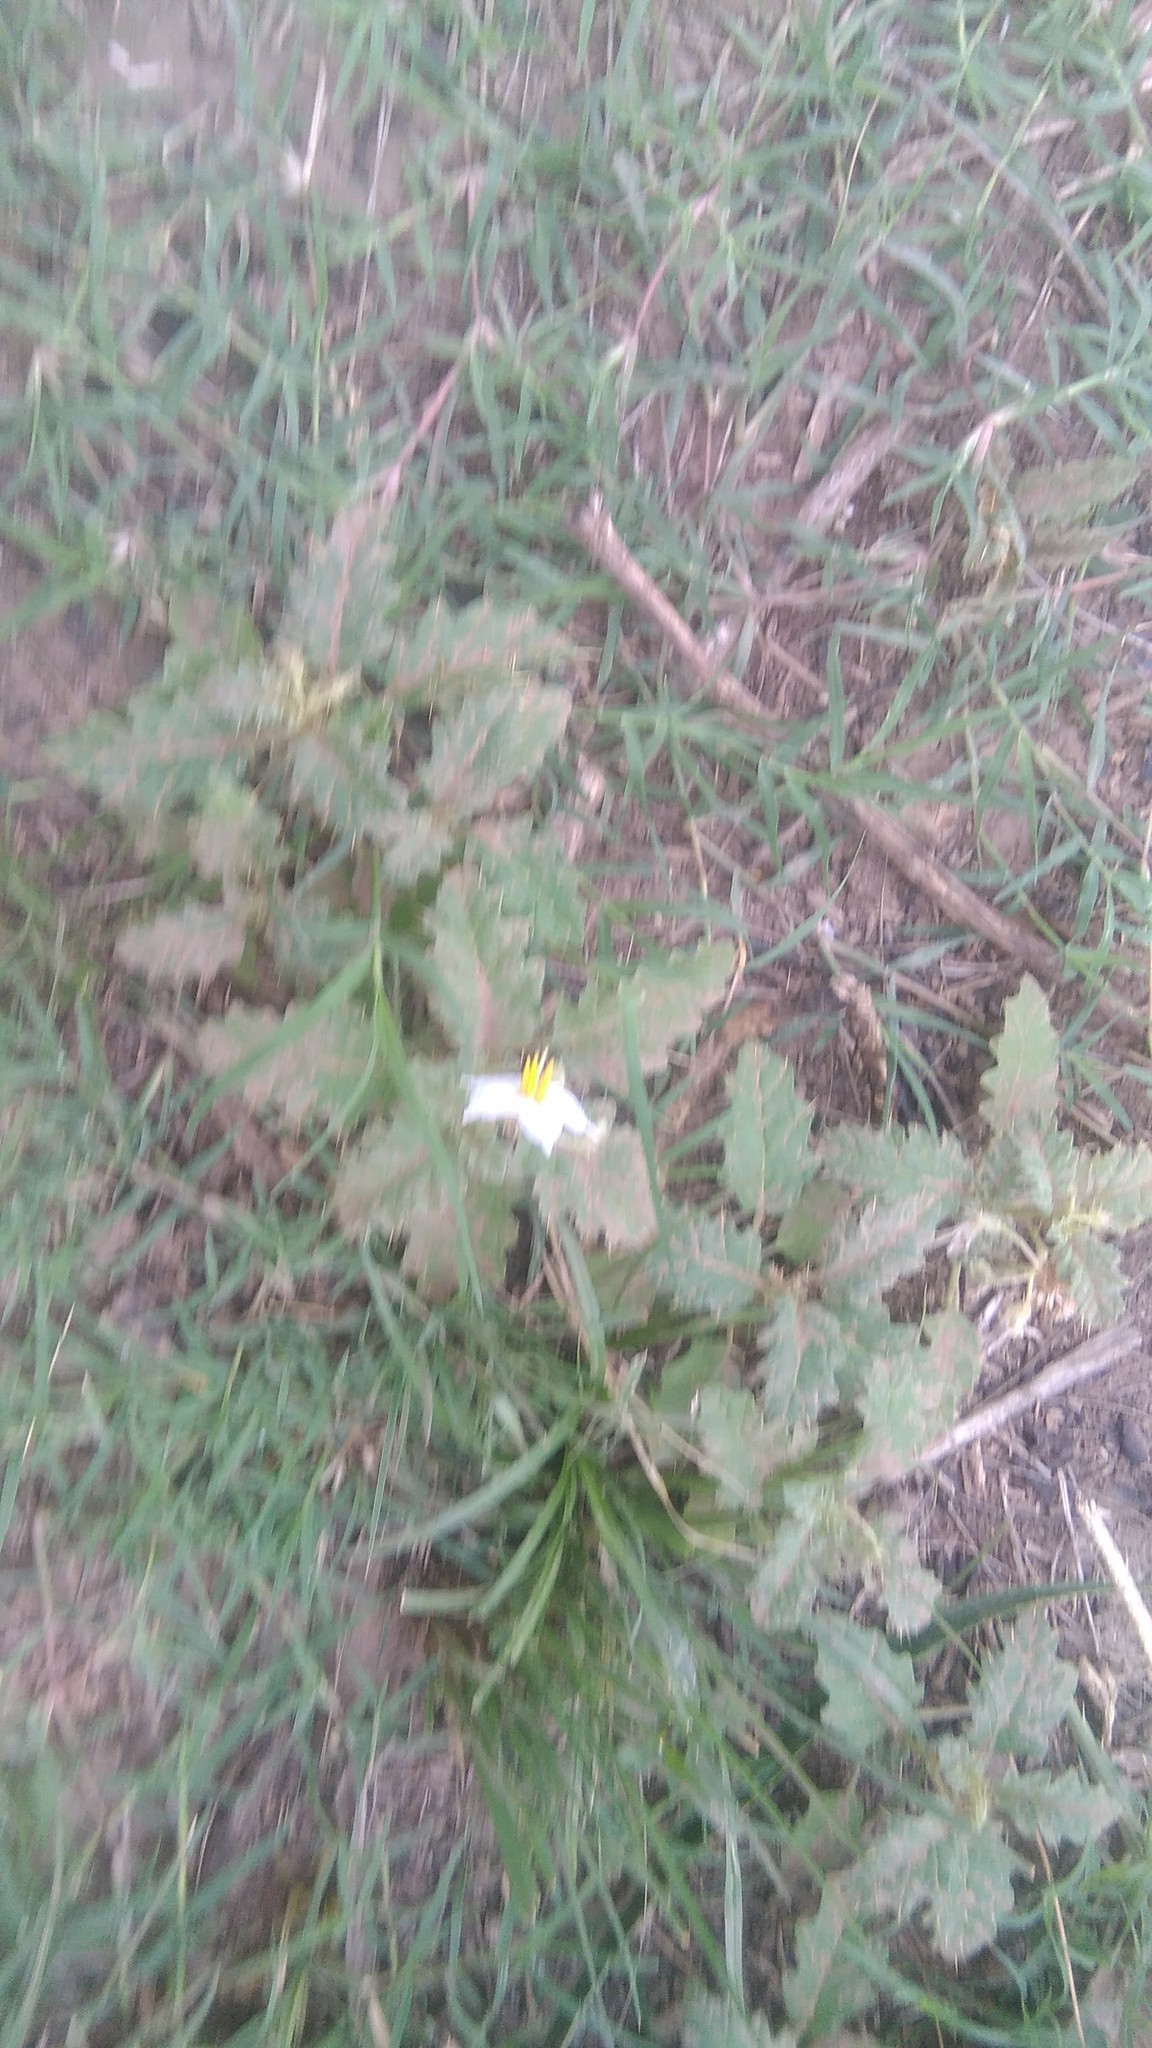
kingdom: Plantae
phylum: Tracheophyta
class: Magnoliopsida
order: Solanales
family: Solanaceae
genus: Solanum
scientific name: Solanum juvenale
